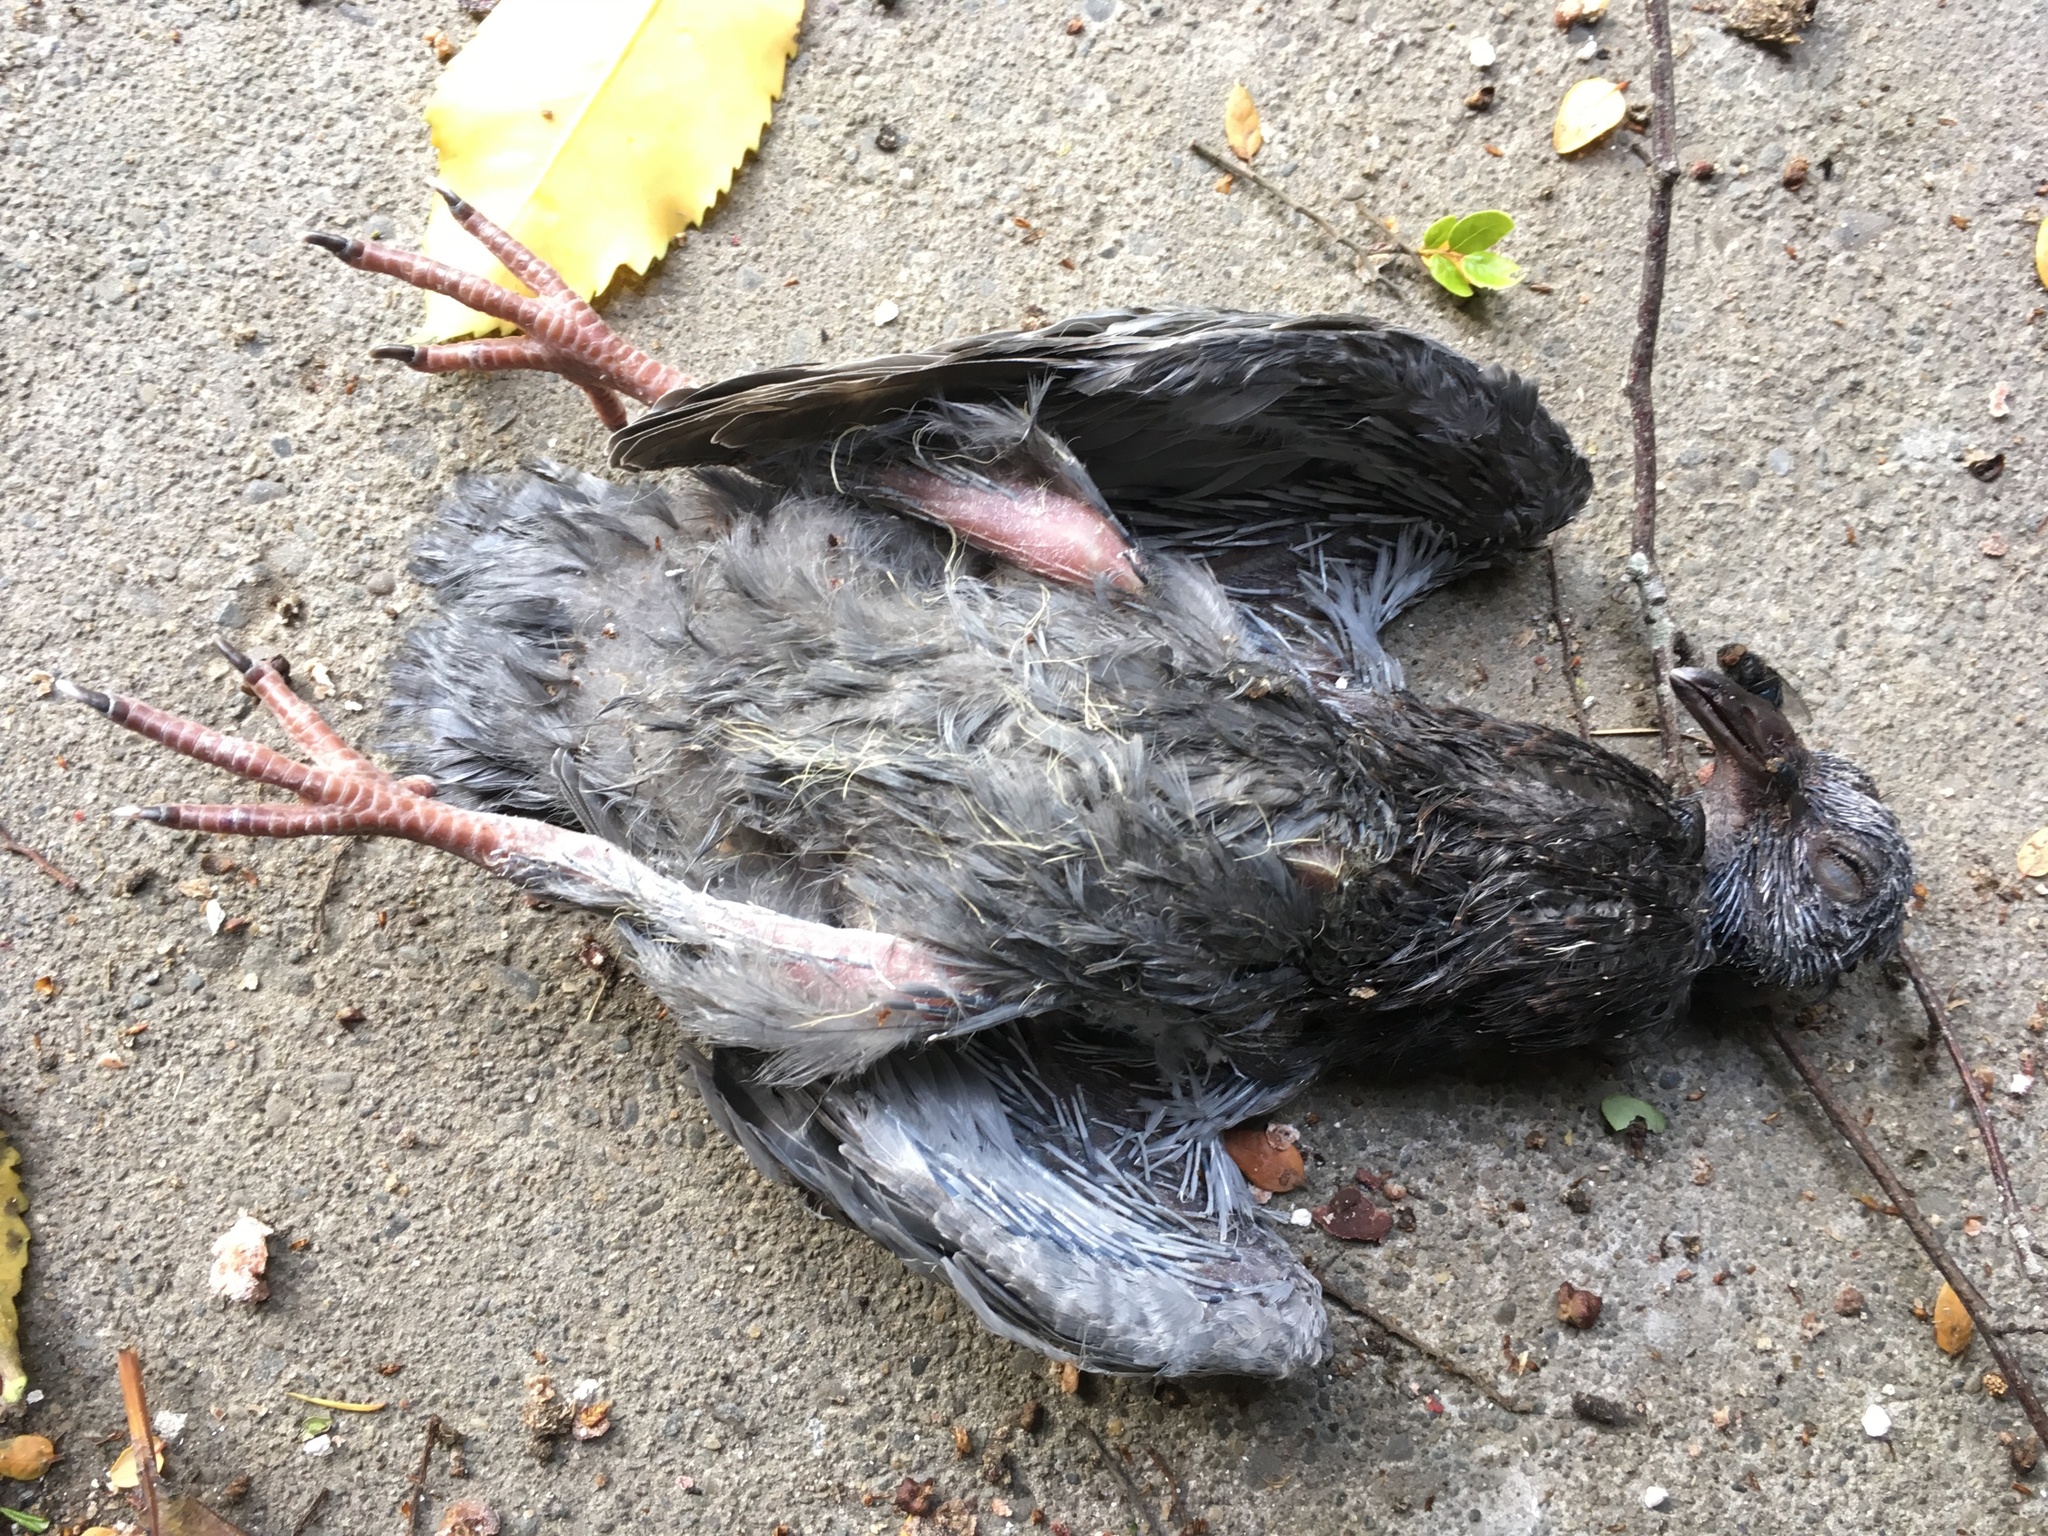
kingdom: Animalia
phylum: Chordata
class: Aves
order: Columbiformes
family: Columbidae
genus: Columba
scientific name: Columba livia
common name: Rock pigeon
